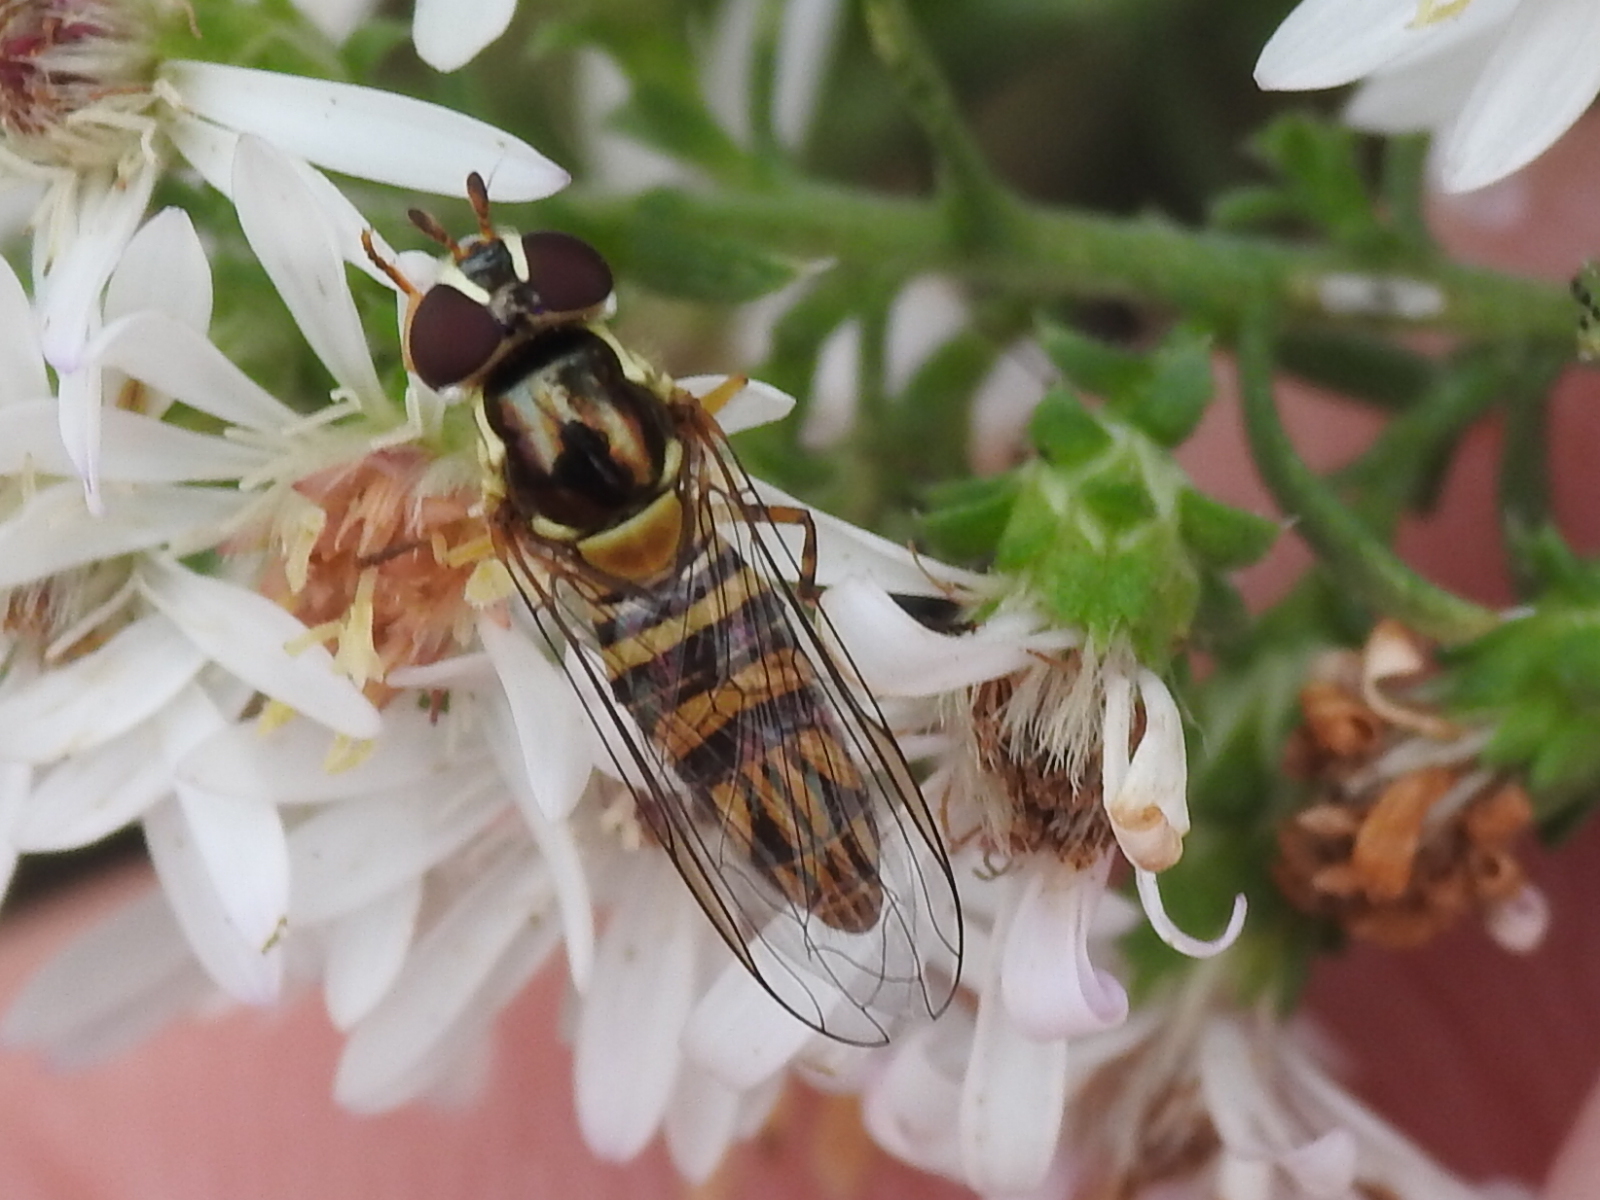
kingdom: Animalia
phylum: Arthropoda
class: Insecta
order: Diptera
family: Syrphidae
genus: Allograpta
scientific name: Allograpta obliqua
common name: Common oblique syrphid
